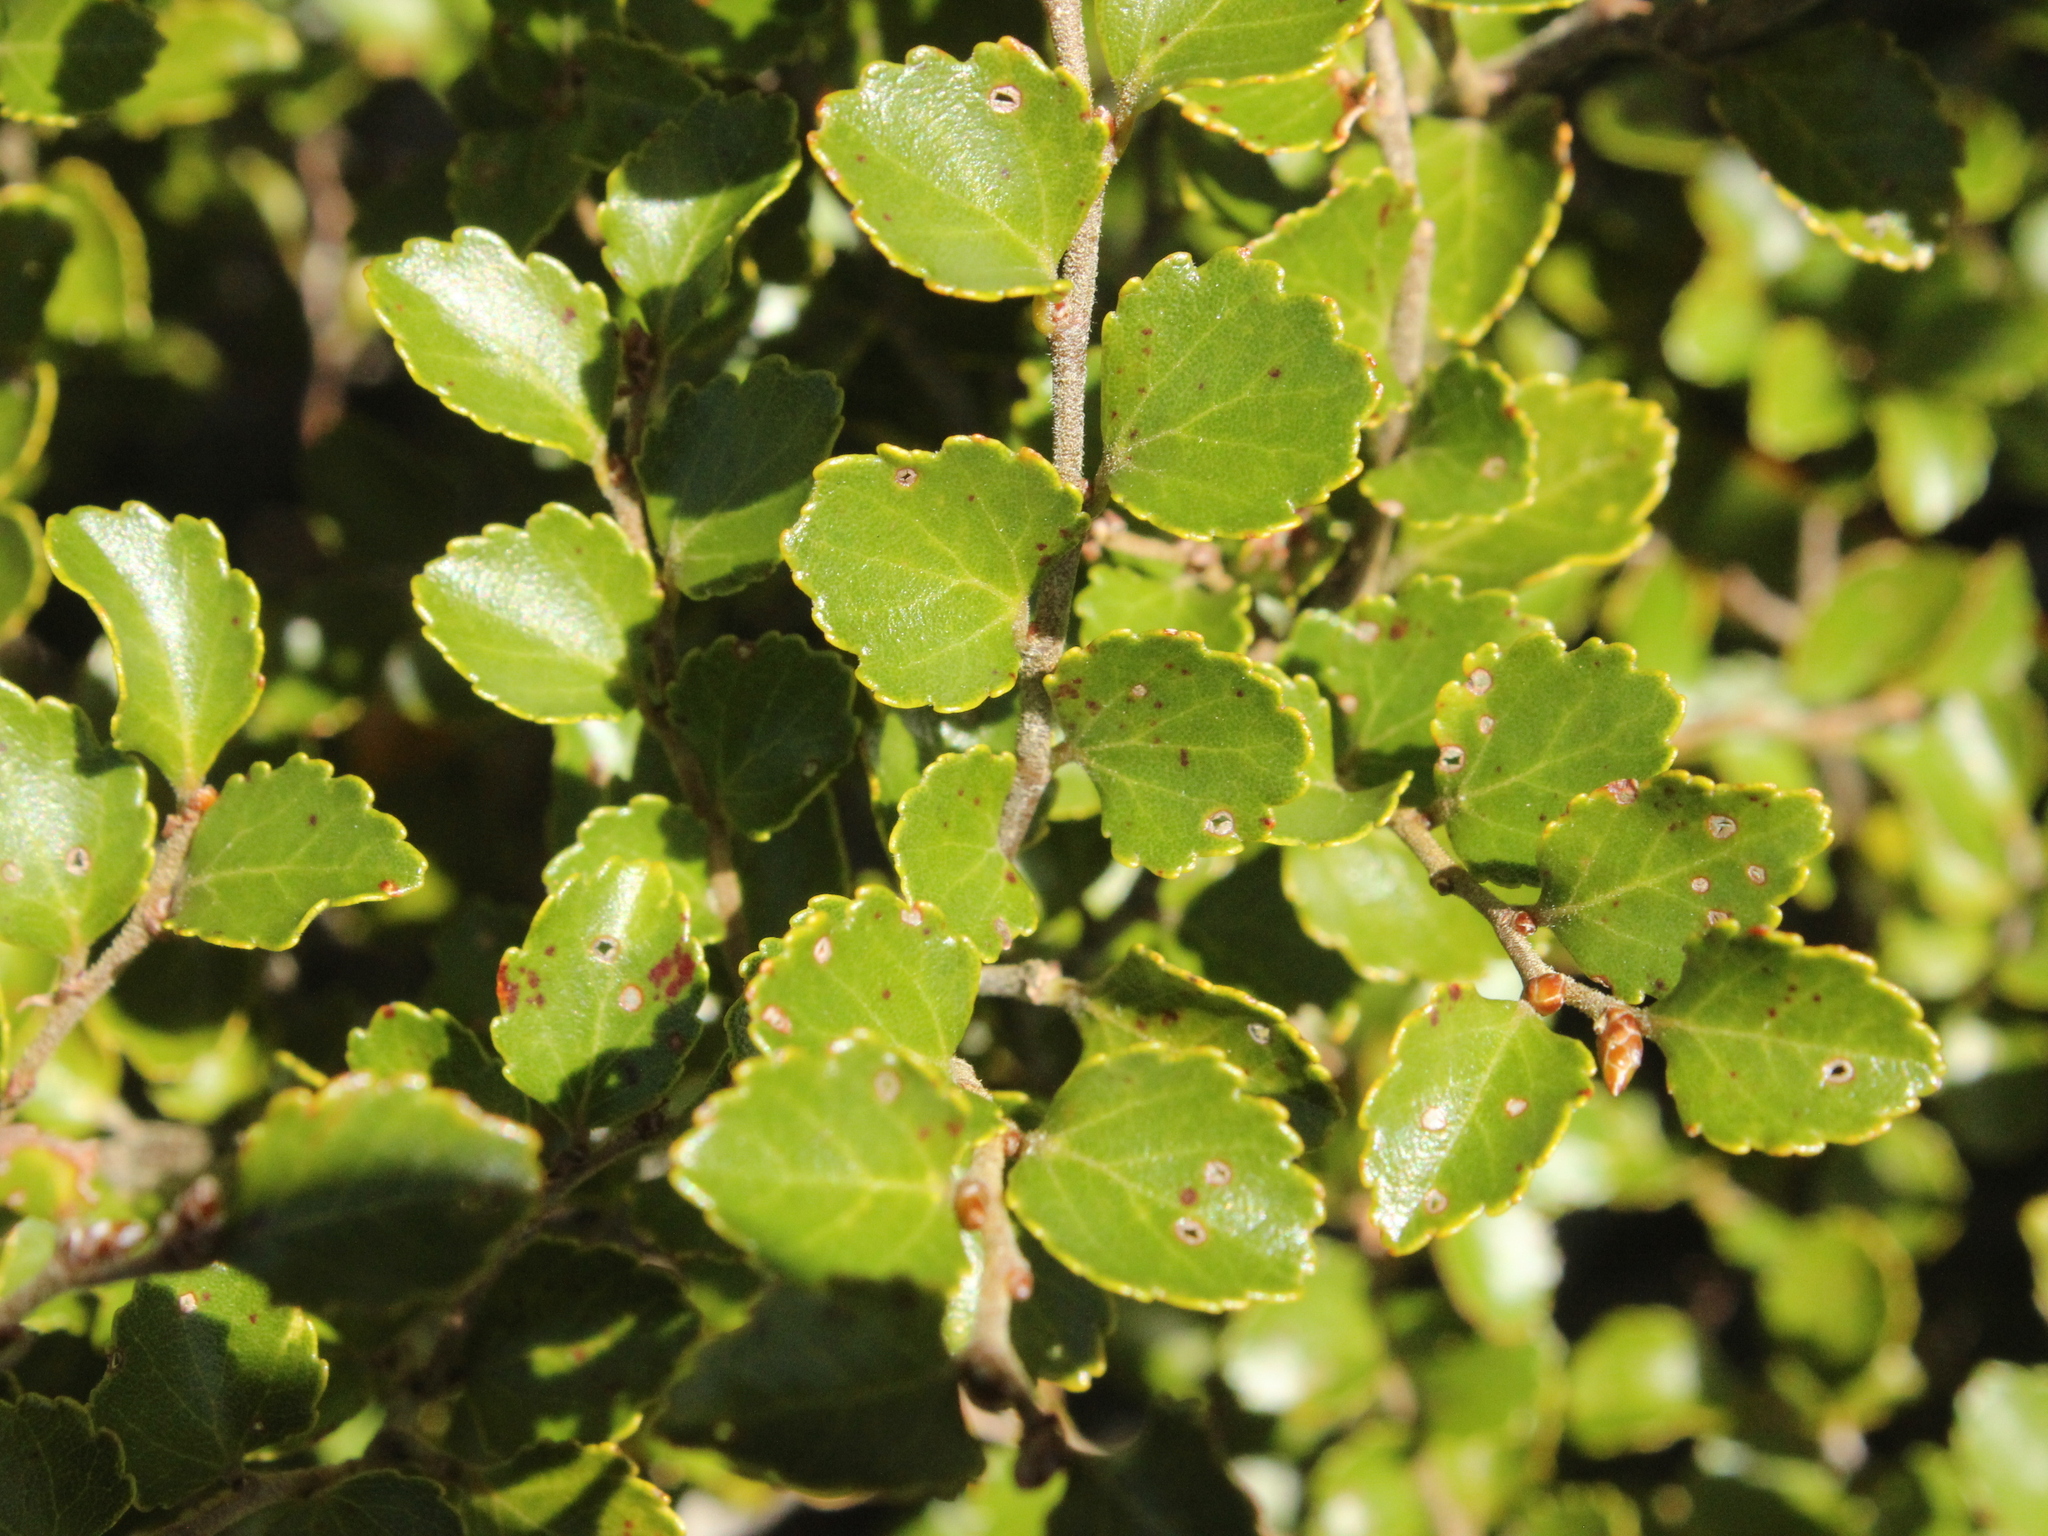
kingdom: Plantae
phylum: Tracheophyta
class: Magnoliopsida
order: Fagales
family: Nothofagaceae
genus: Nothofagus
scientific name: Nothofagus menziesii
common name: Silver beech
